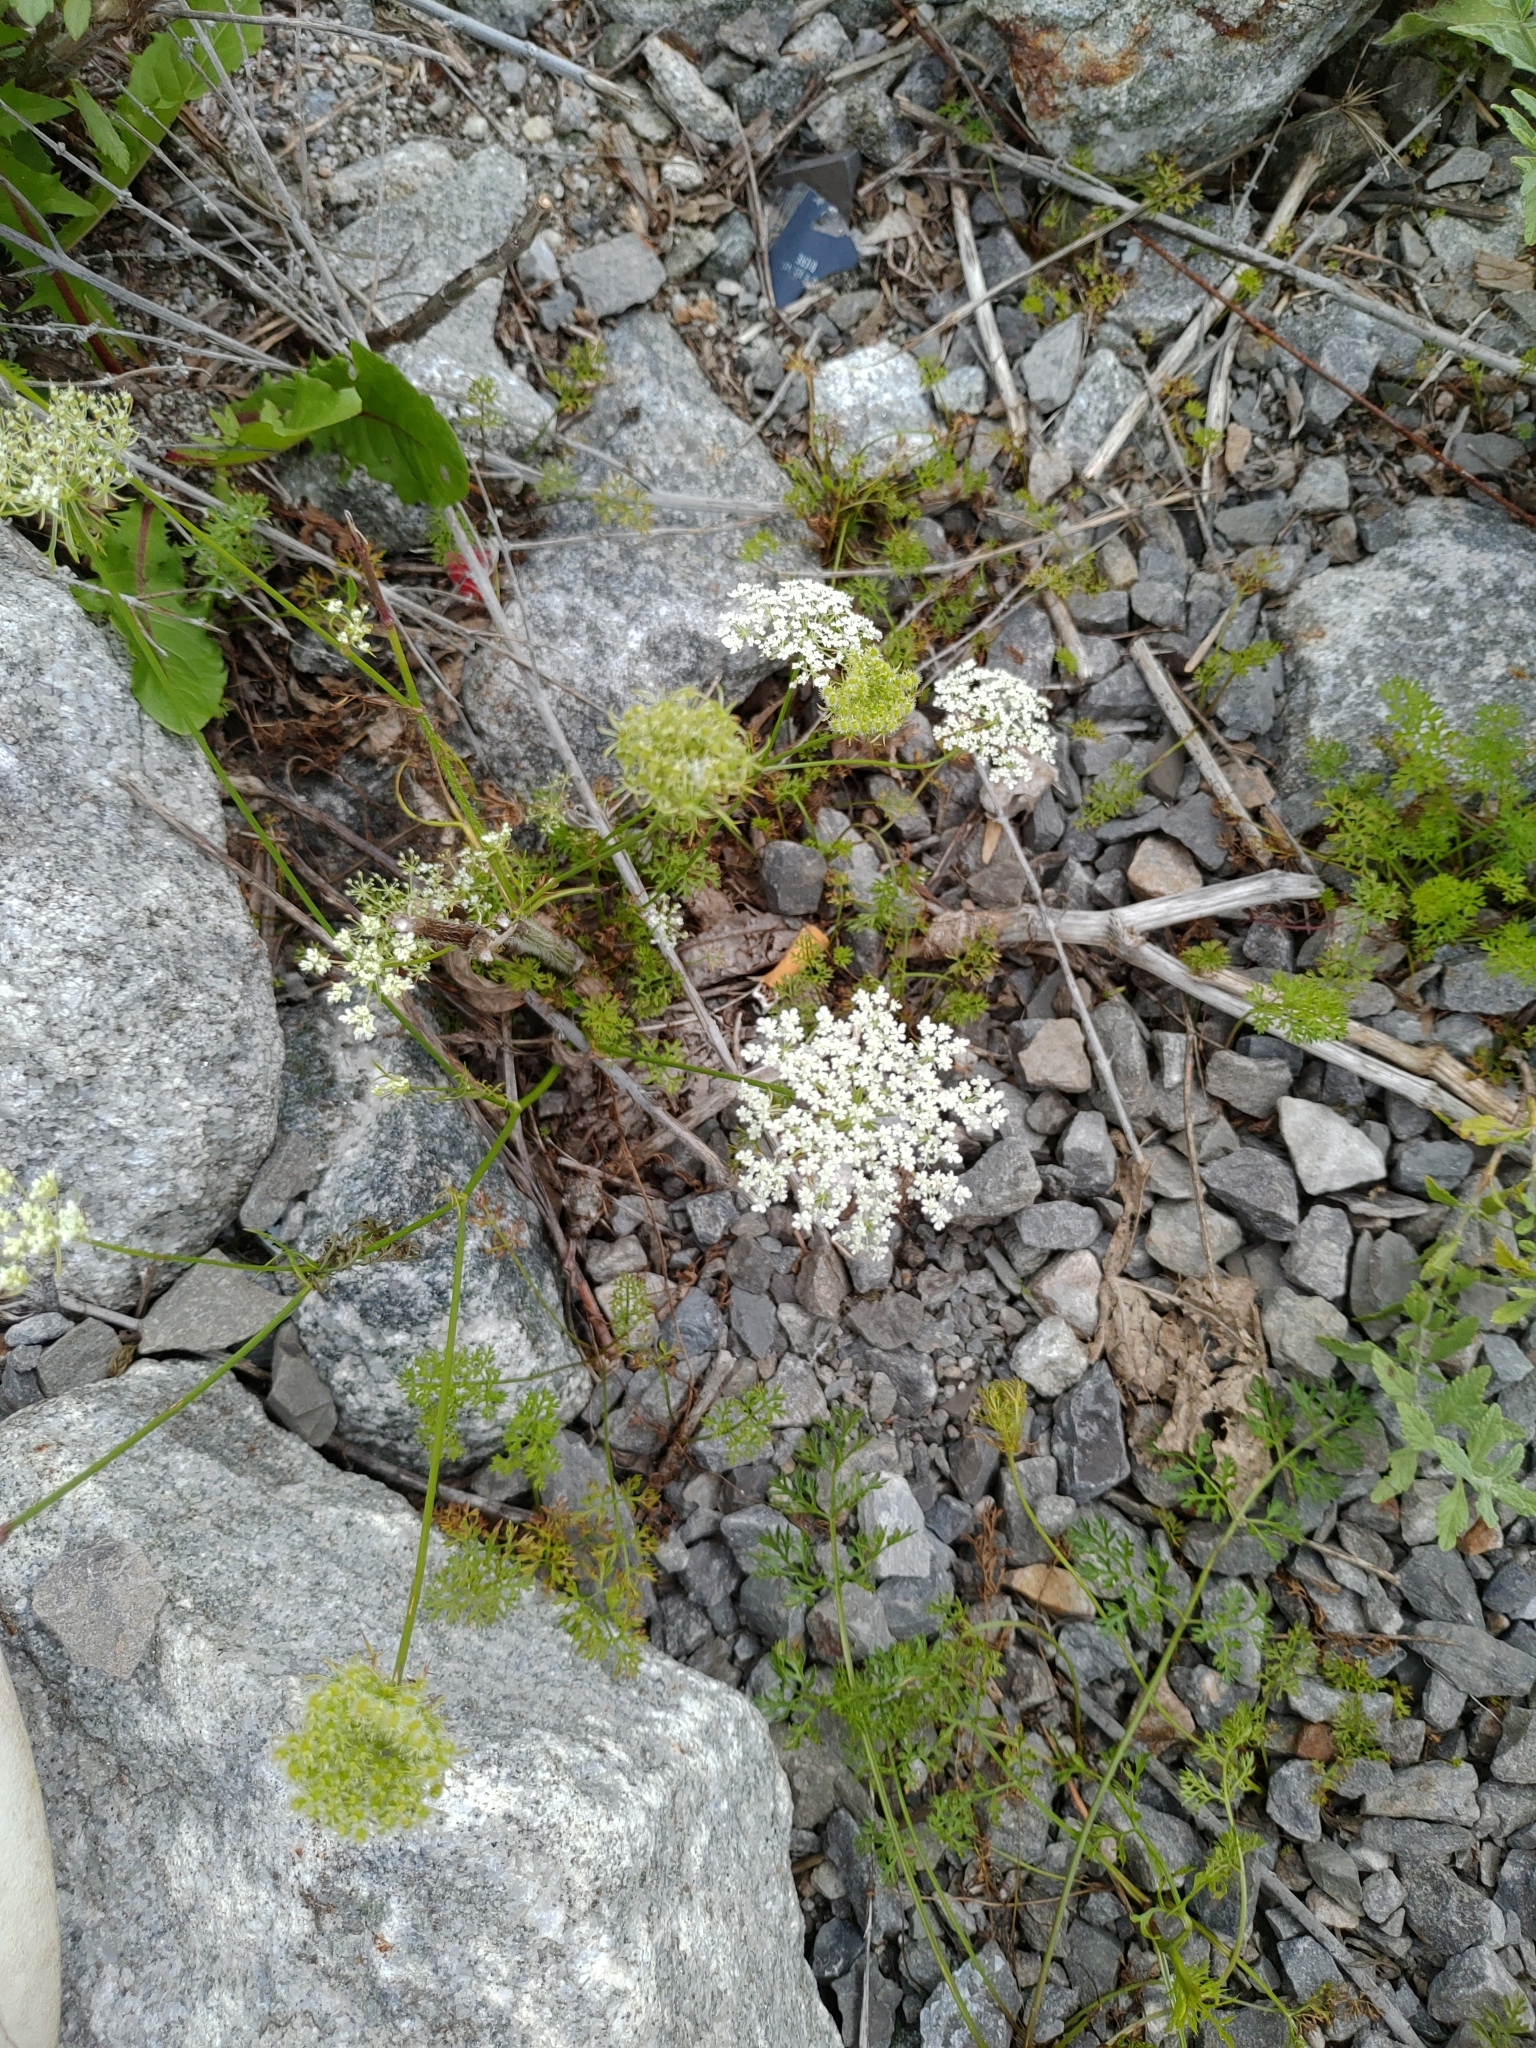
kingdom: Plantae
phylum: Tracheophyta
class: Magnoliopsida
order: Apiales
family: Apiaceae
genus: Daucus
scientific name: Daucus carota
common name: Wild carrot
